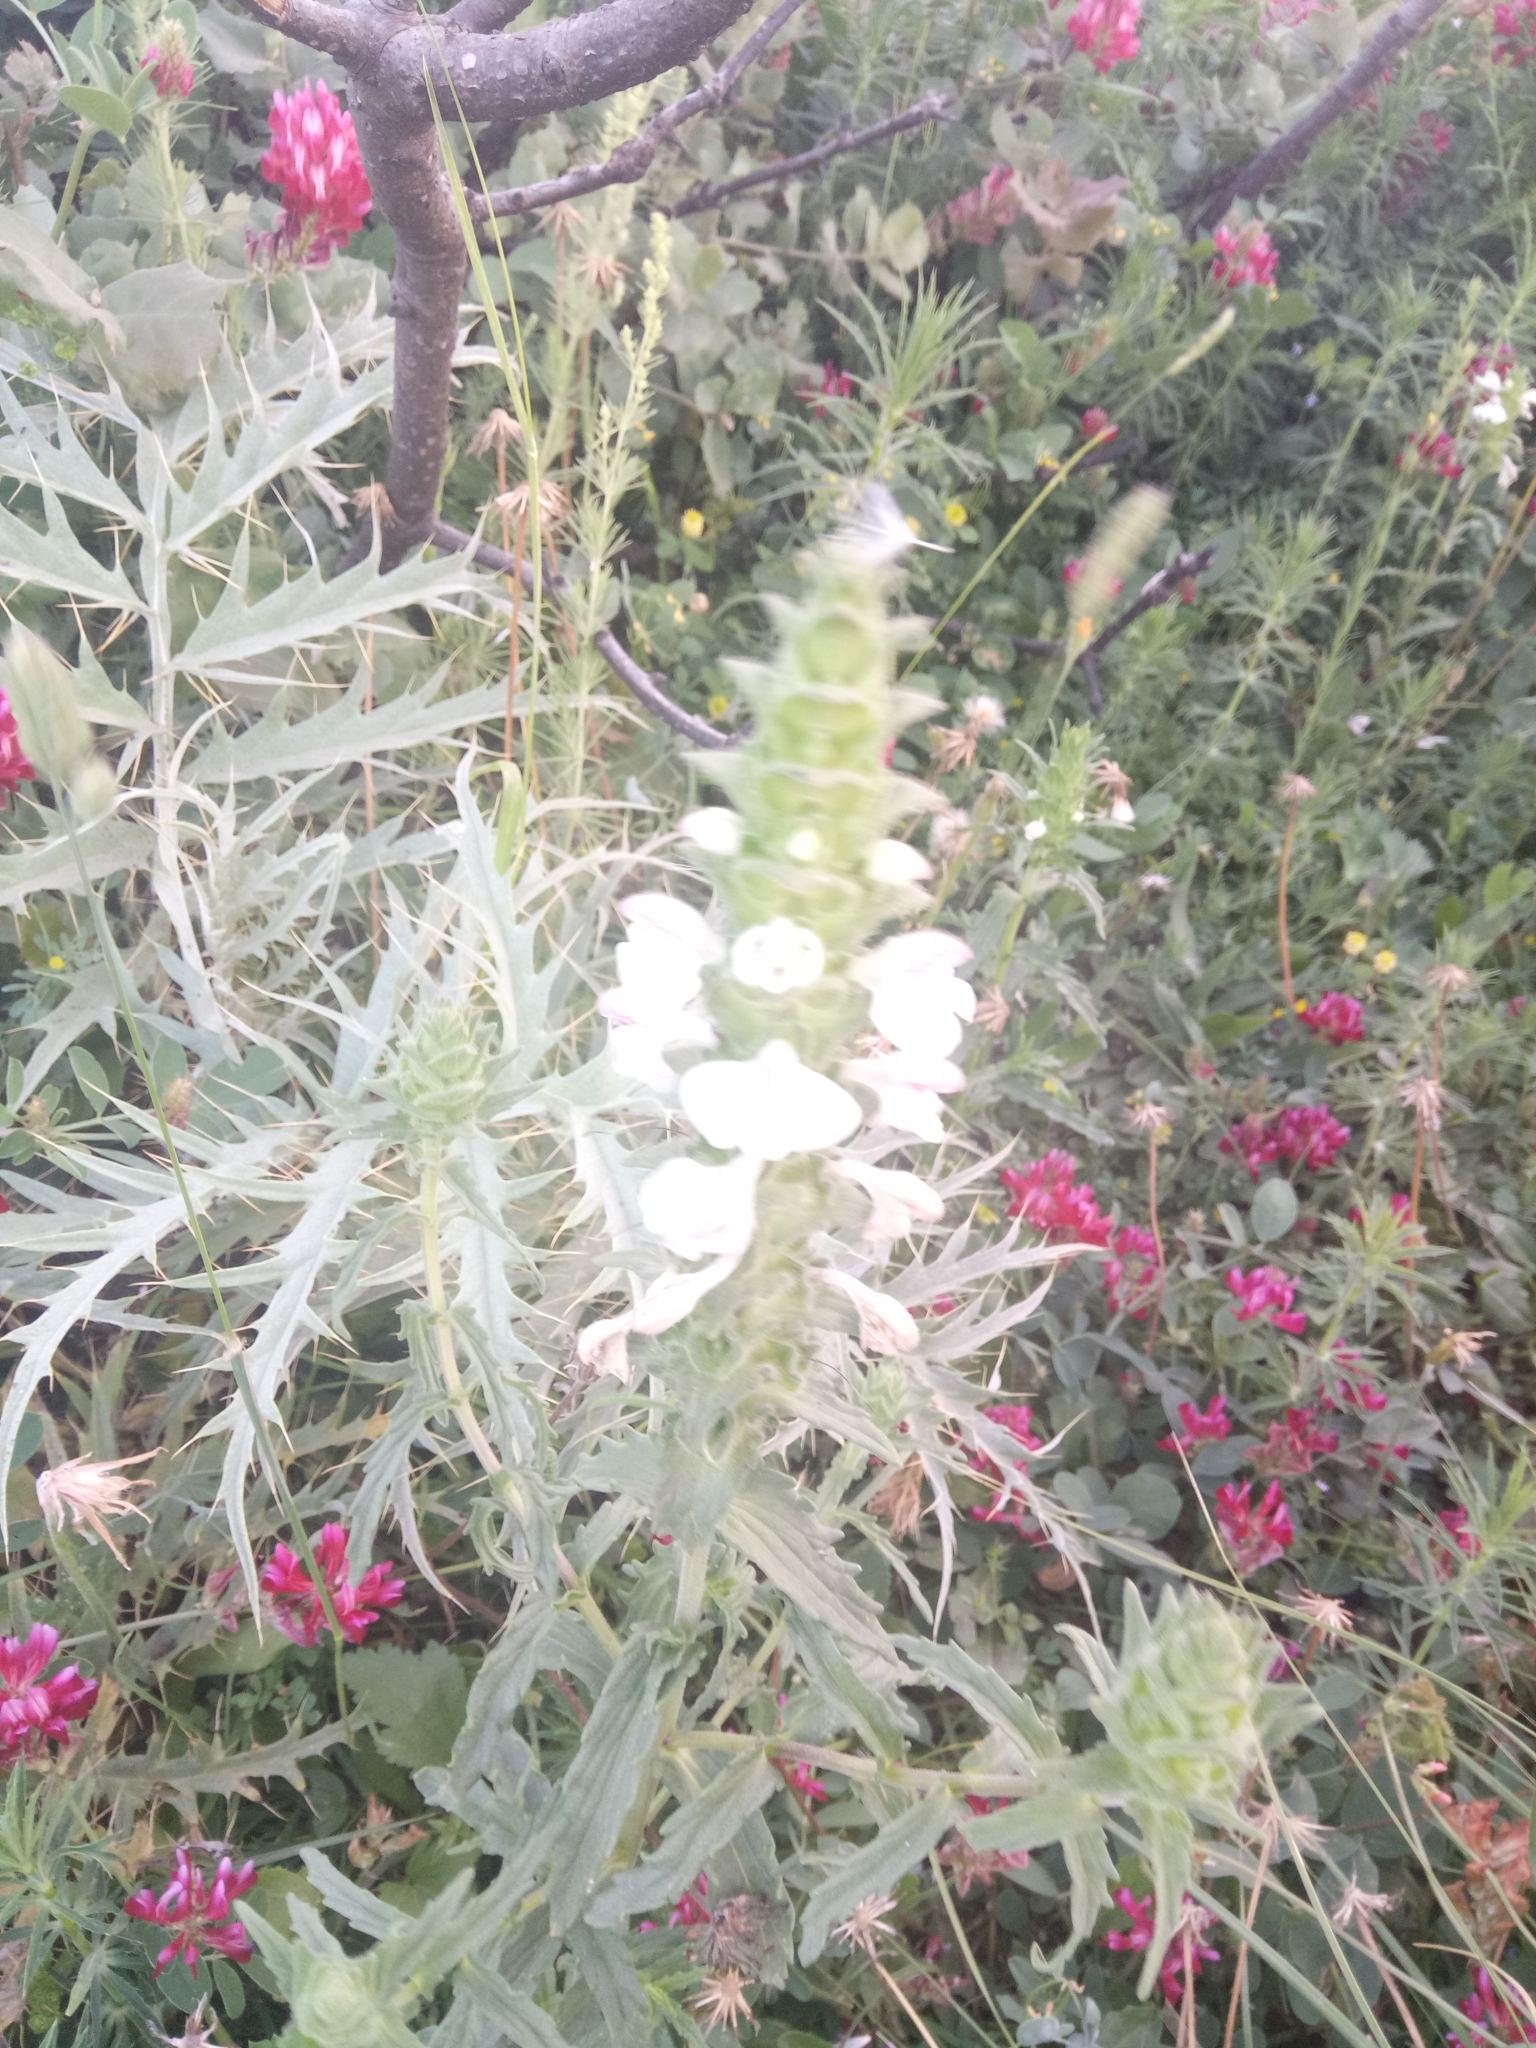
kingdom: Plantae
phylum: Tracheophyta
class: Magnoliopsida
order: Lamiales
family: Orobanchaceae
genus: Bellardia
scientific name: Bellardia trixago
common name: Mediterranean lineseed
